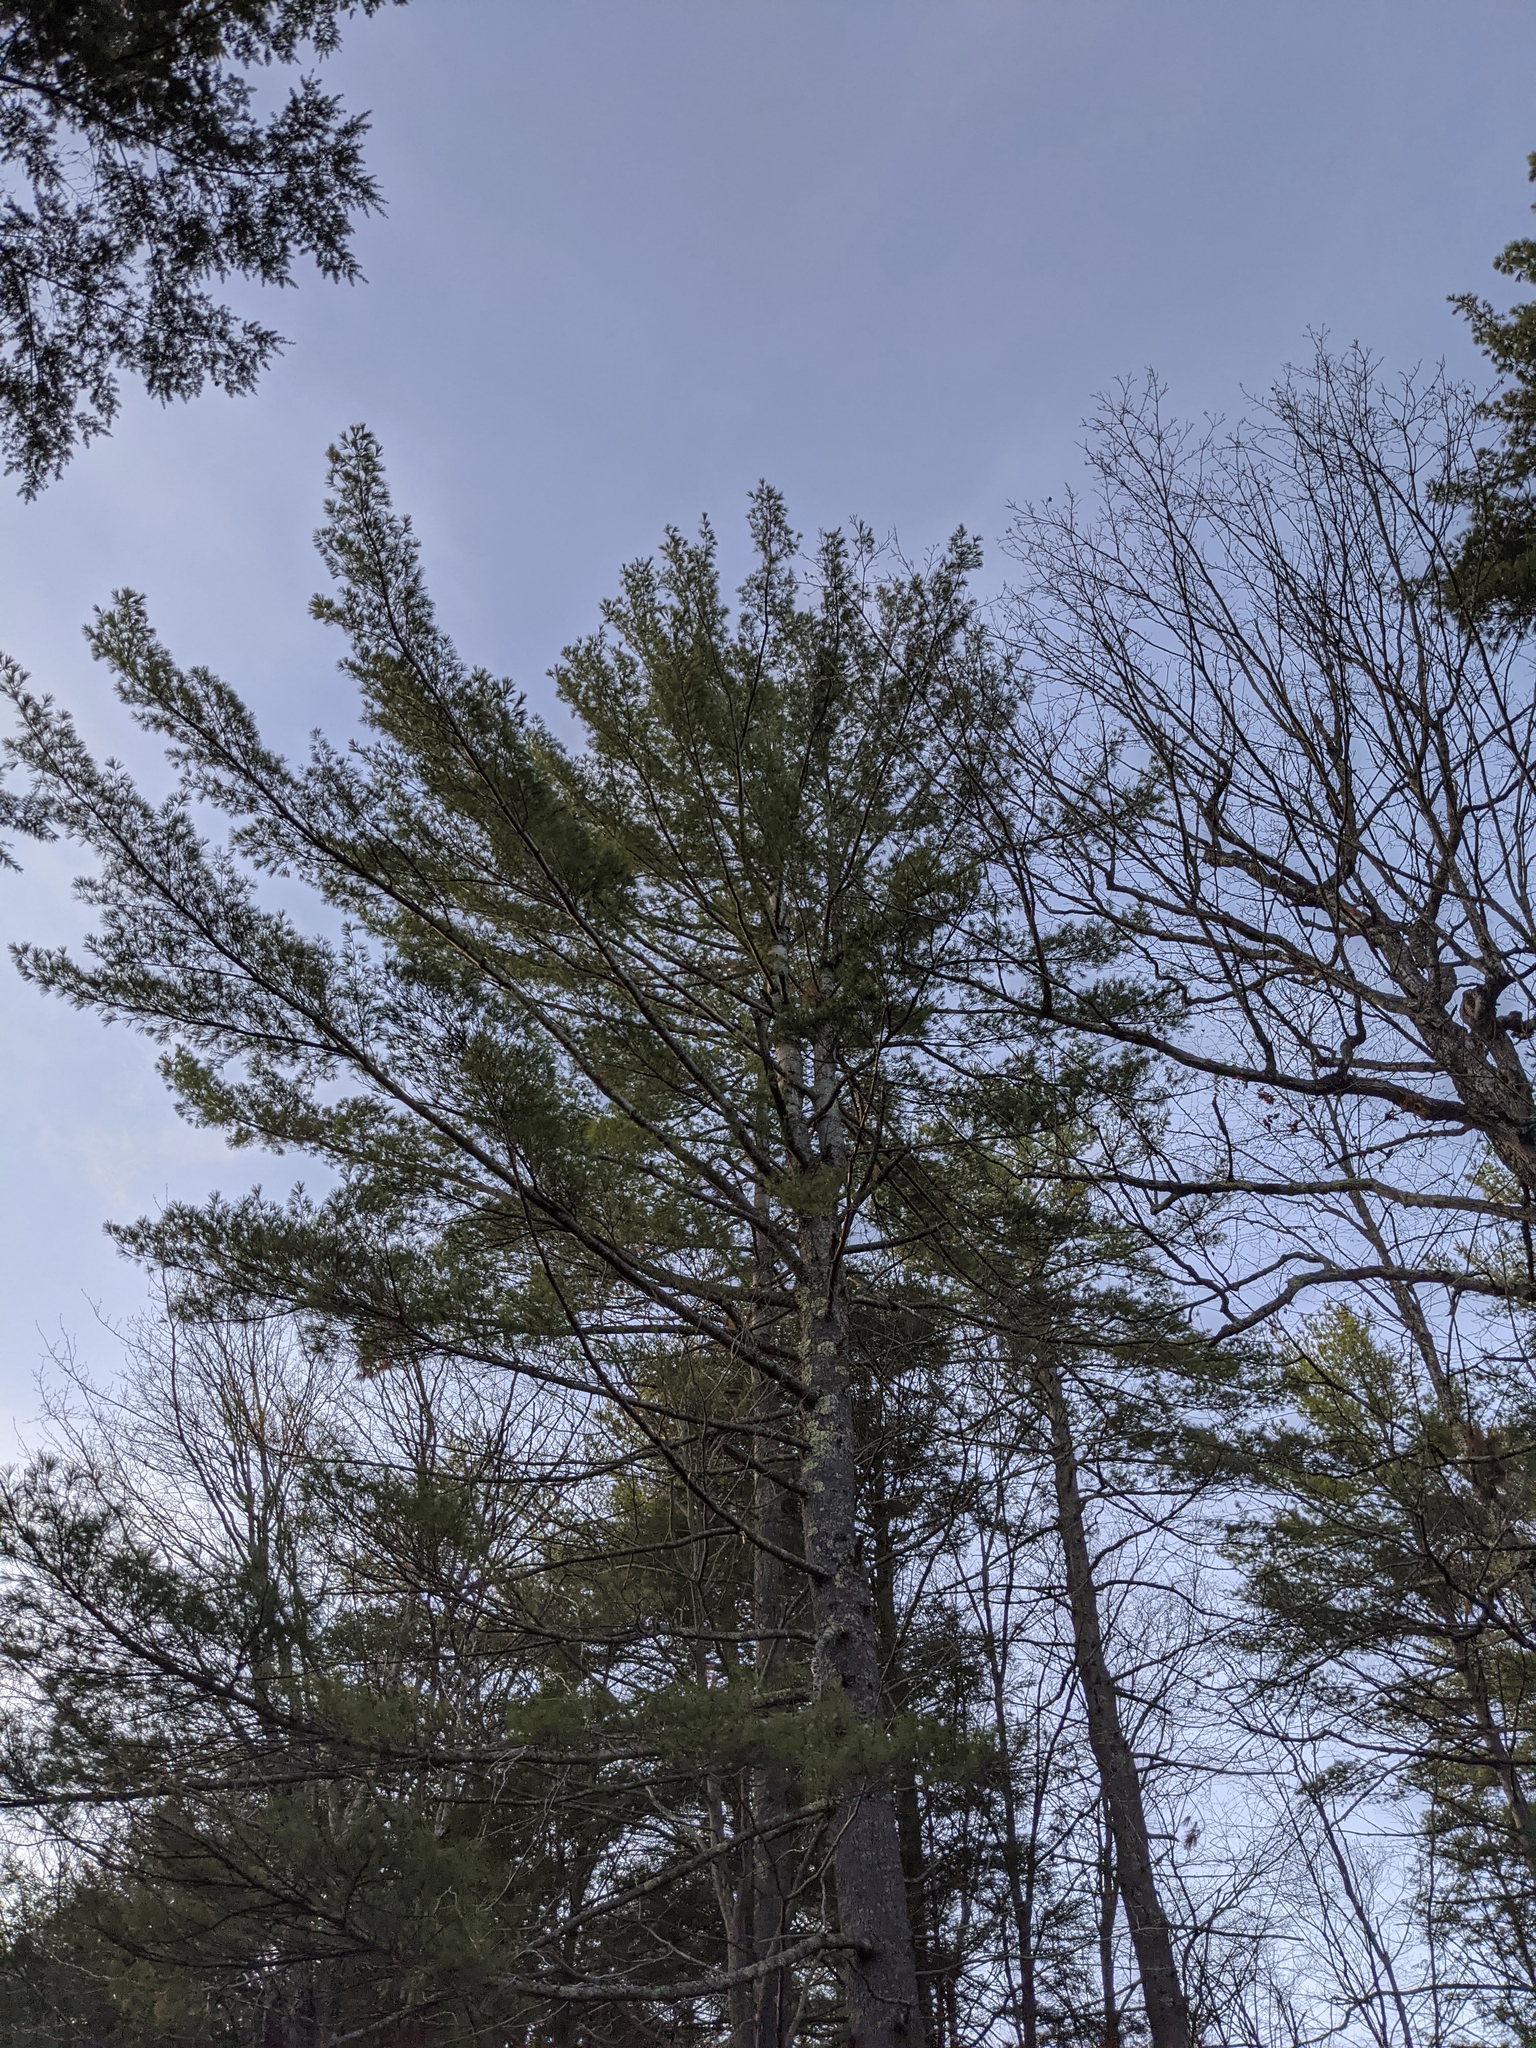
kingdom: Plantae
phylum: Tracheophyta
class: Pinopsida
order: Pinales
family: Pinaceae
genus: Pinus
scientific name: Pinus strobus
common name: Weymouth pine
